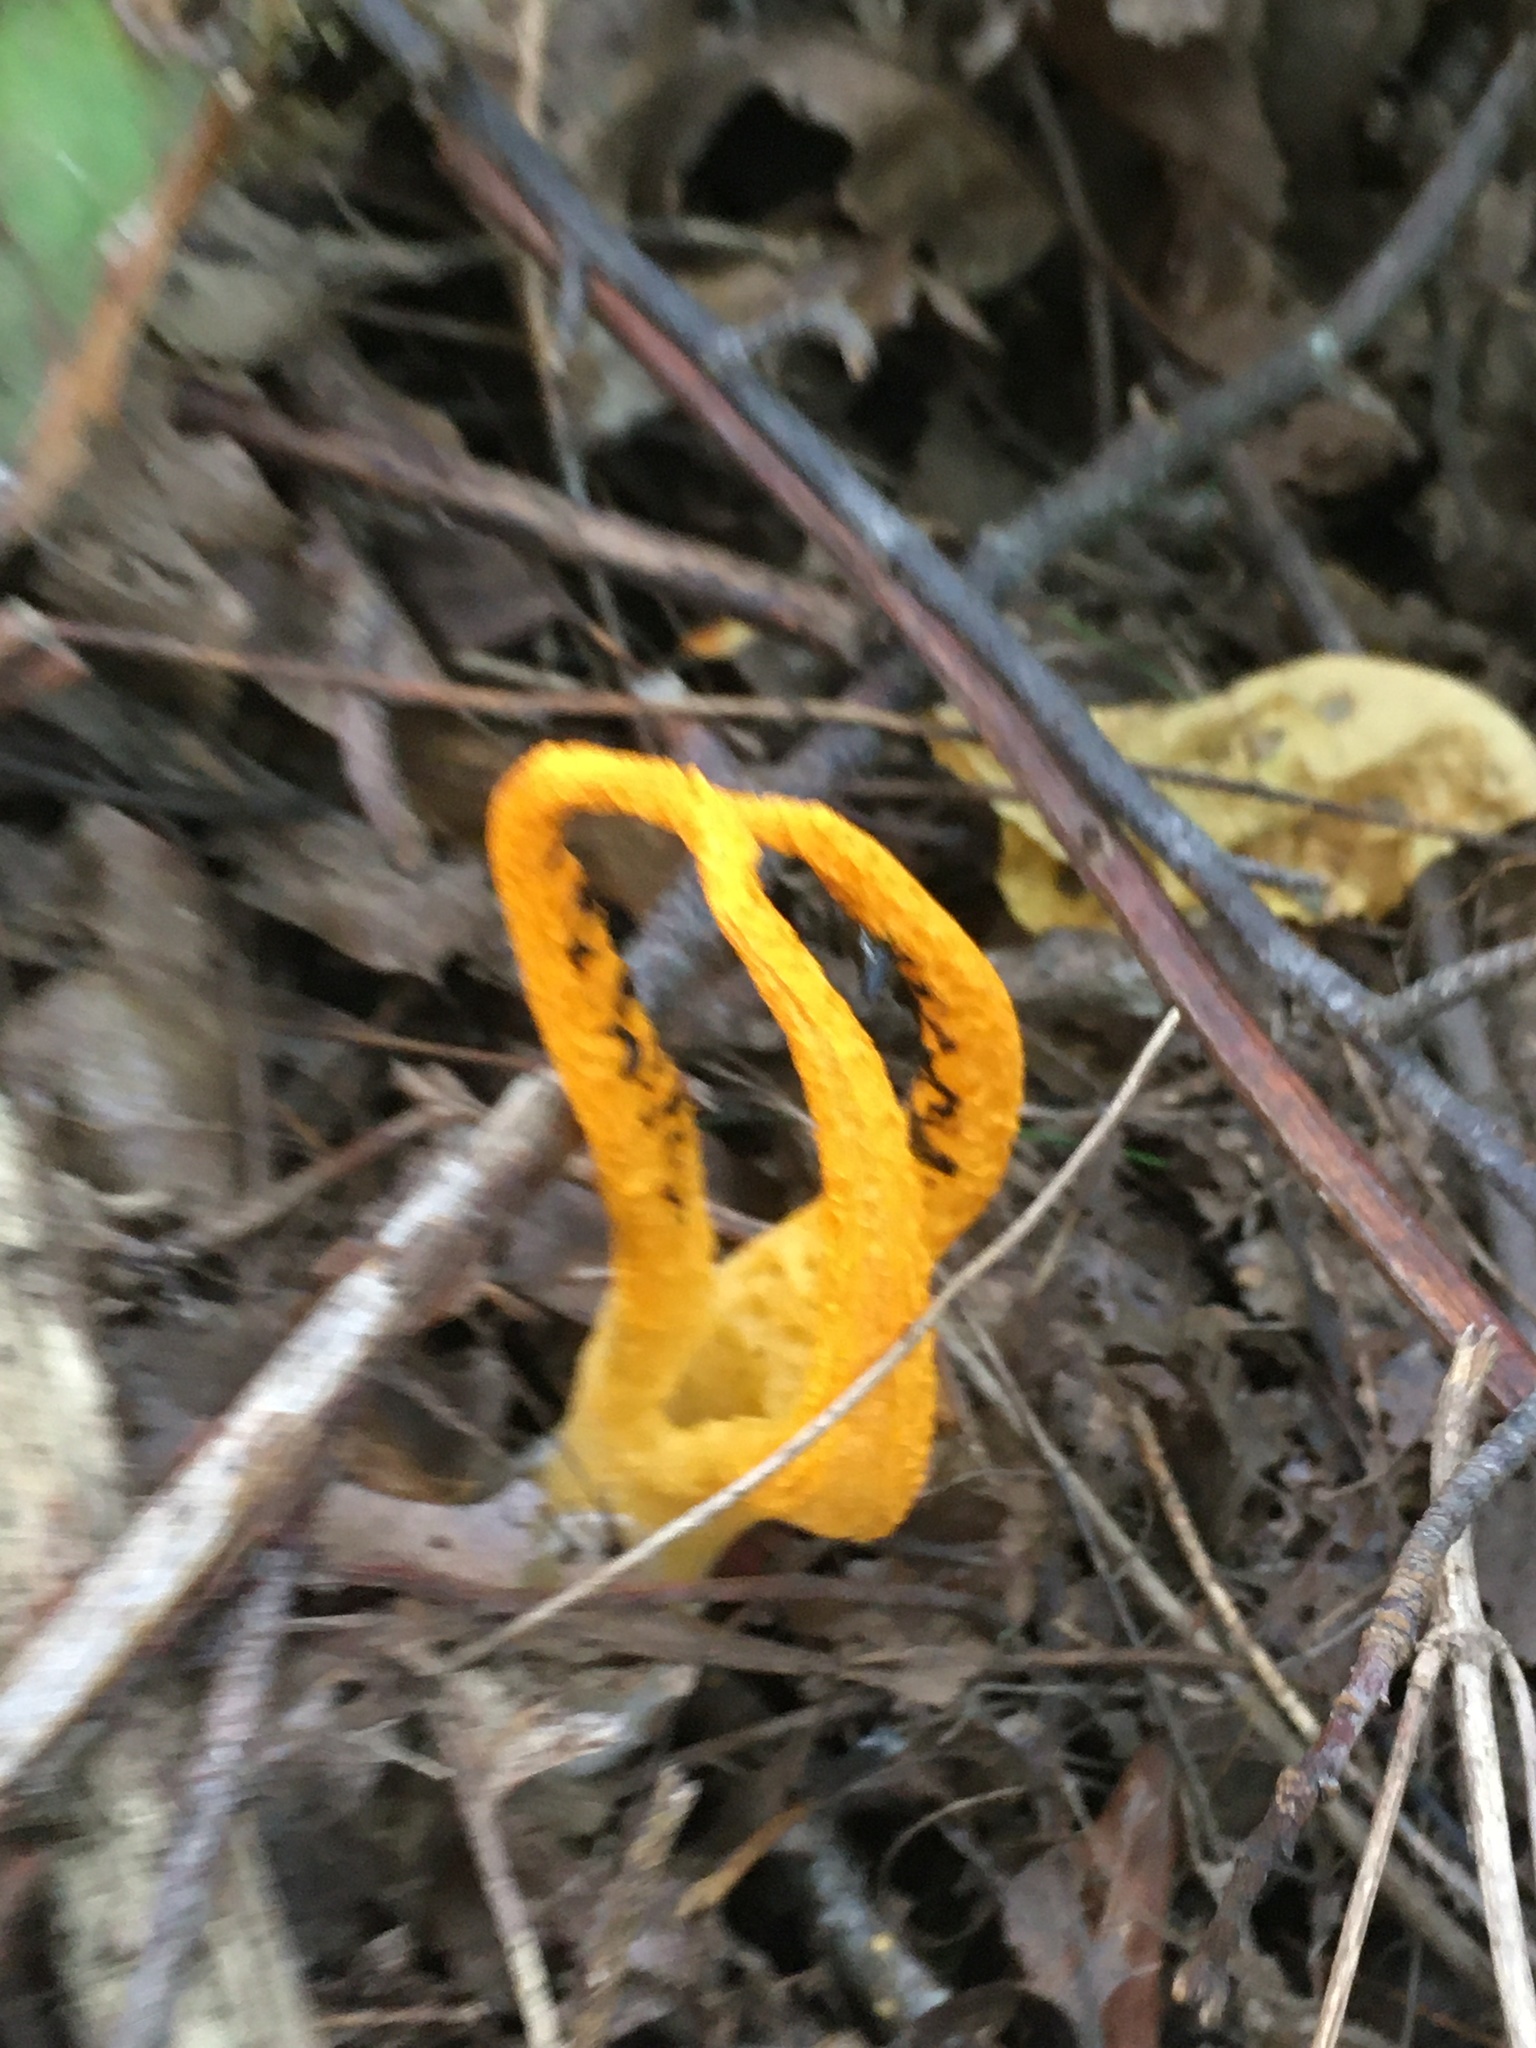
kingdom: Fungi
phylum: Basidiomycota
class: Agaricomycetes
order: Phallales
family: Phallaceae
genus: Pseudocolus
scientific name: Pseudocolus fusiformis
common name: Stinky squid
